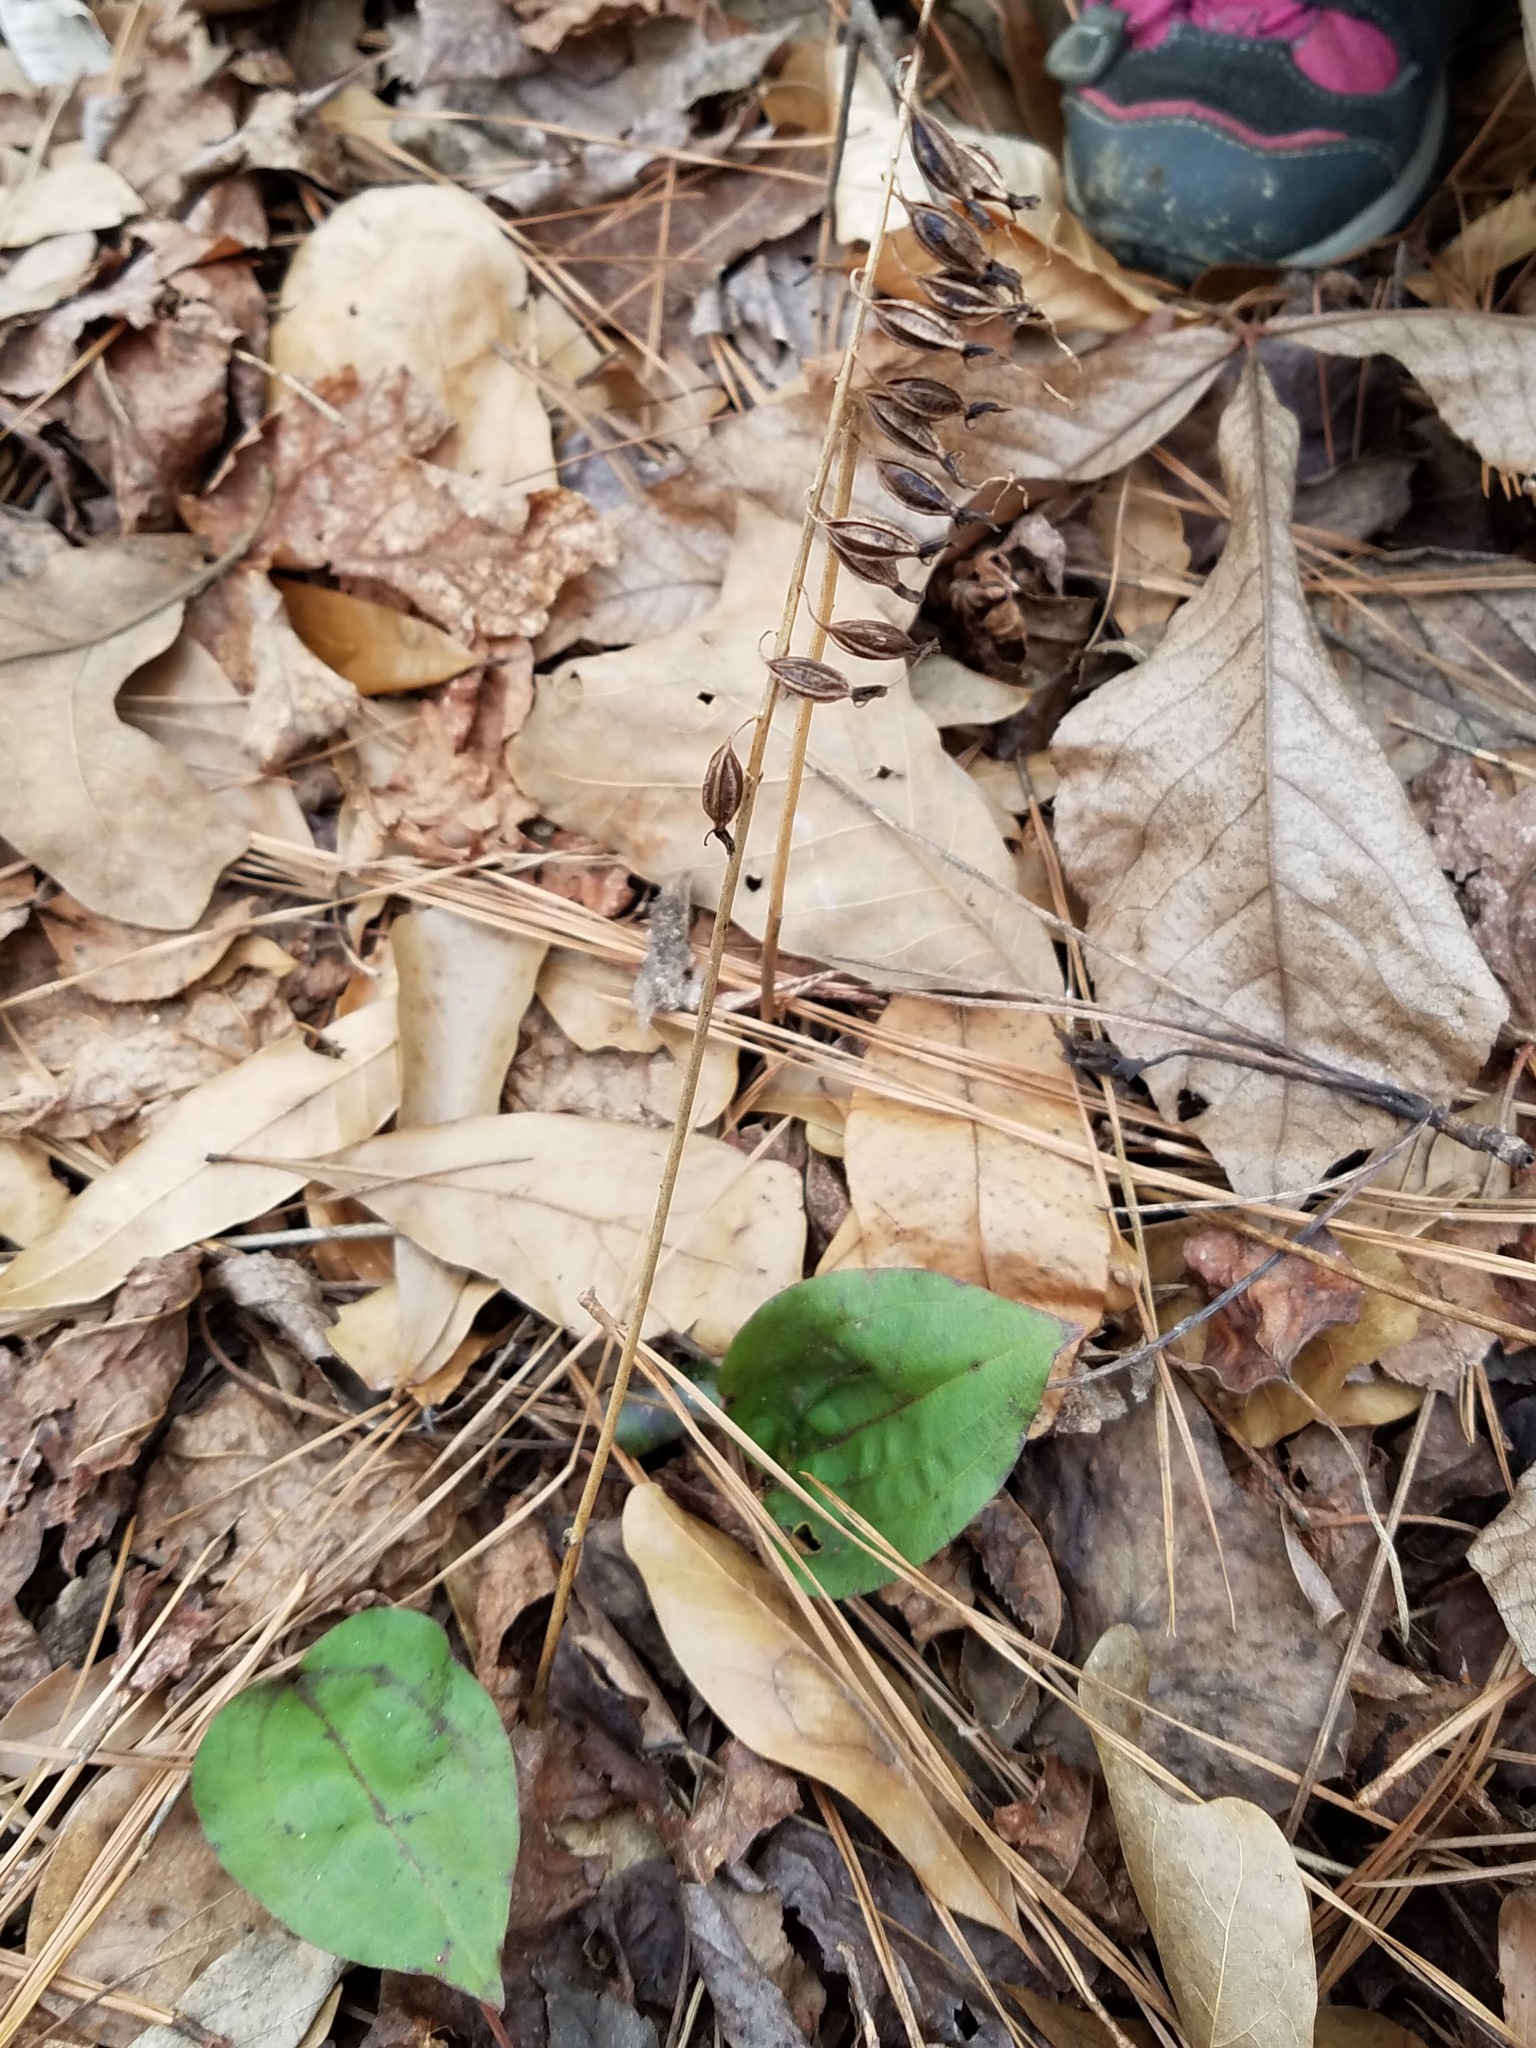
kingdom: Plantae
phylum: Tracheophyta
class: Liliopsida
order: Asparagales
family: Orchidaceae
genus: Tipularia
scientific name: Tipularia discolor
